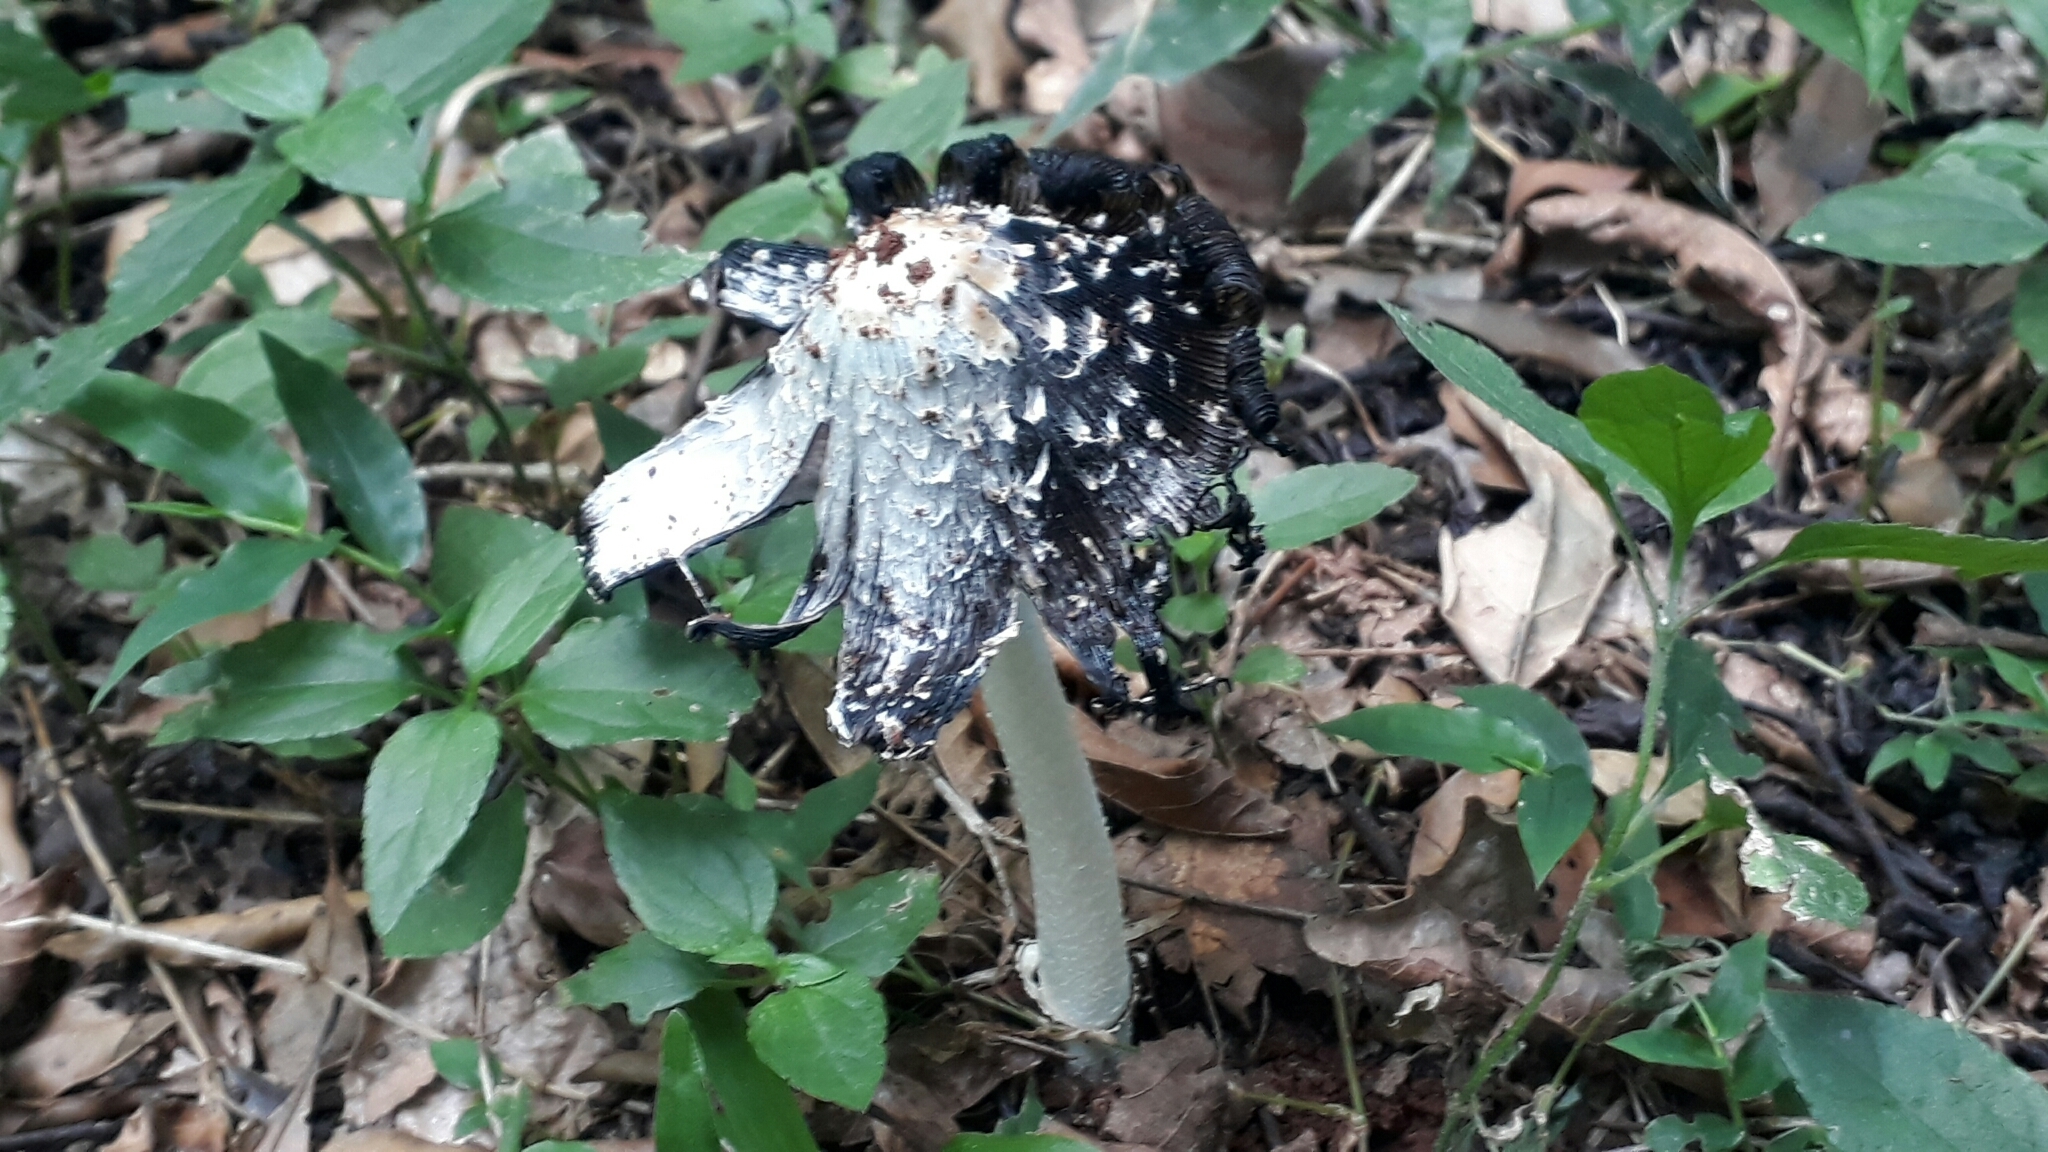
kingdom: Fungi
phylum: Basidiomycota
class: Agaricomycetes
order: Agaricales
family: Agaricaceae
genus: Coprinus
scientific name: Coprinus comatus
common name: Lawyer's wig
